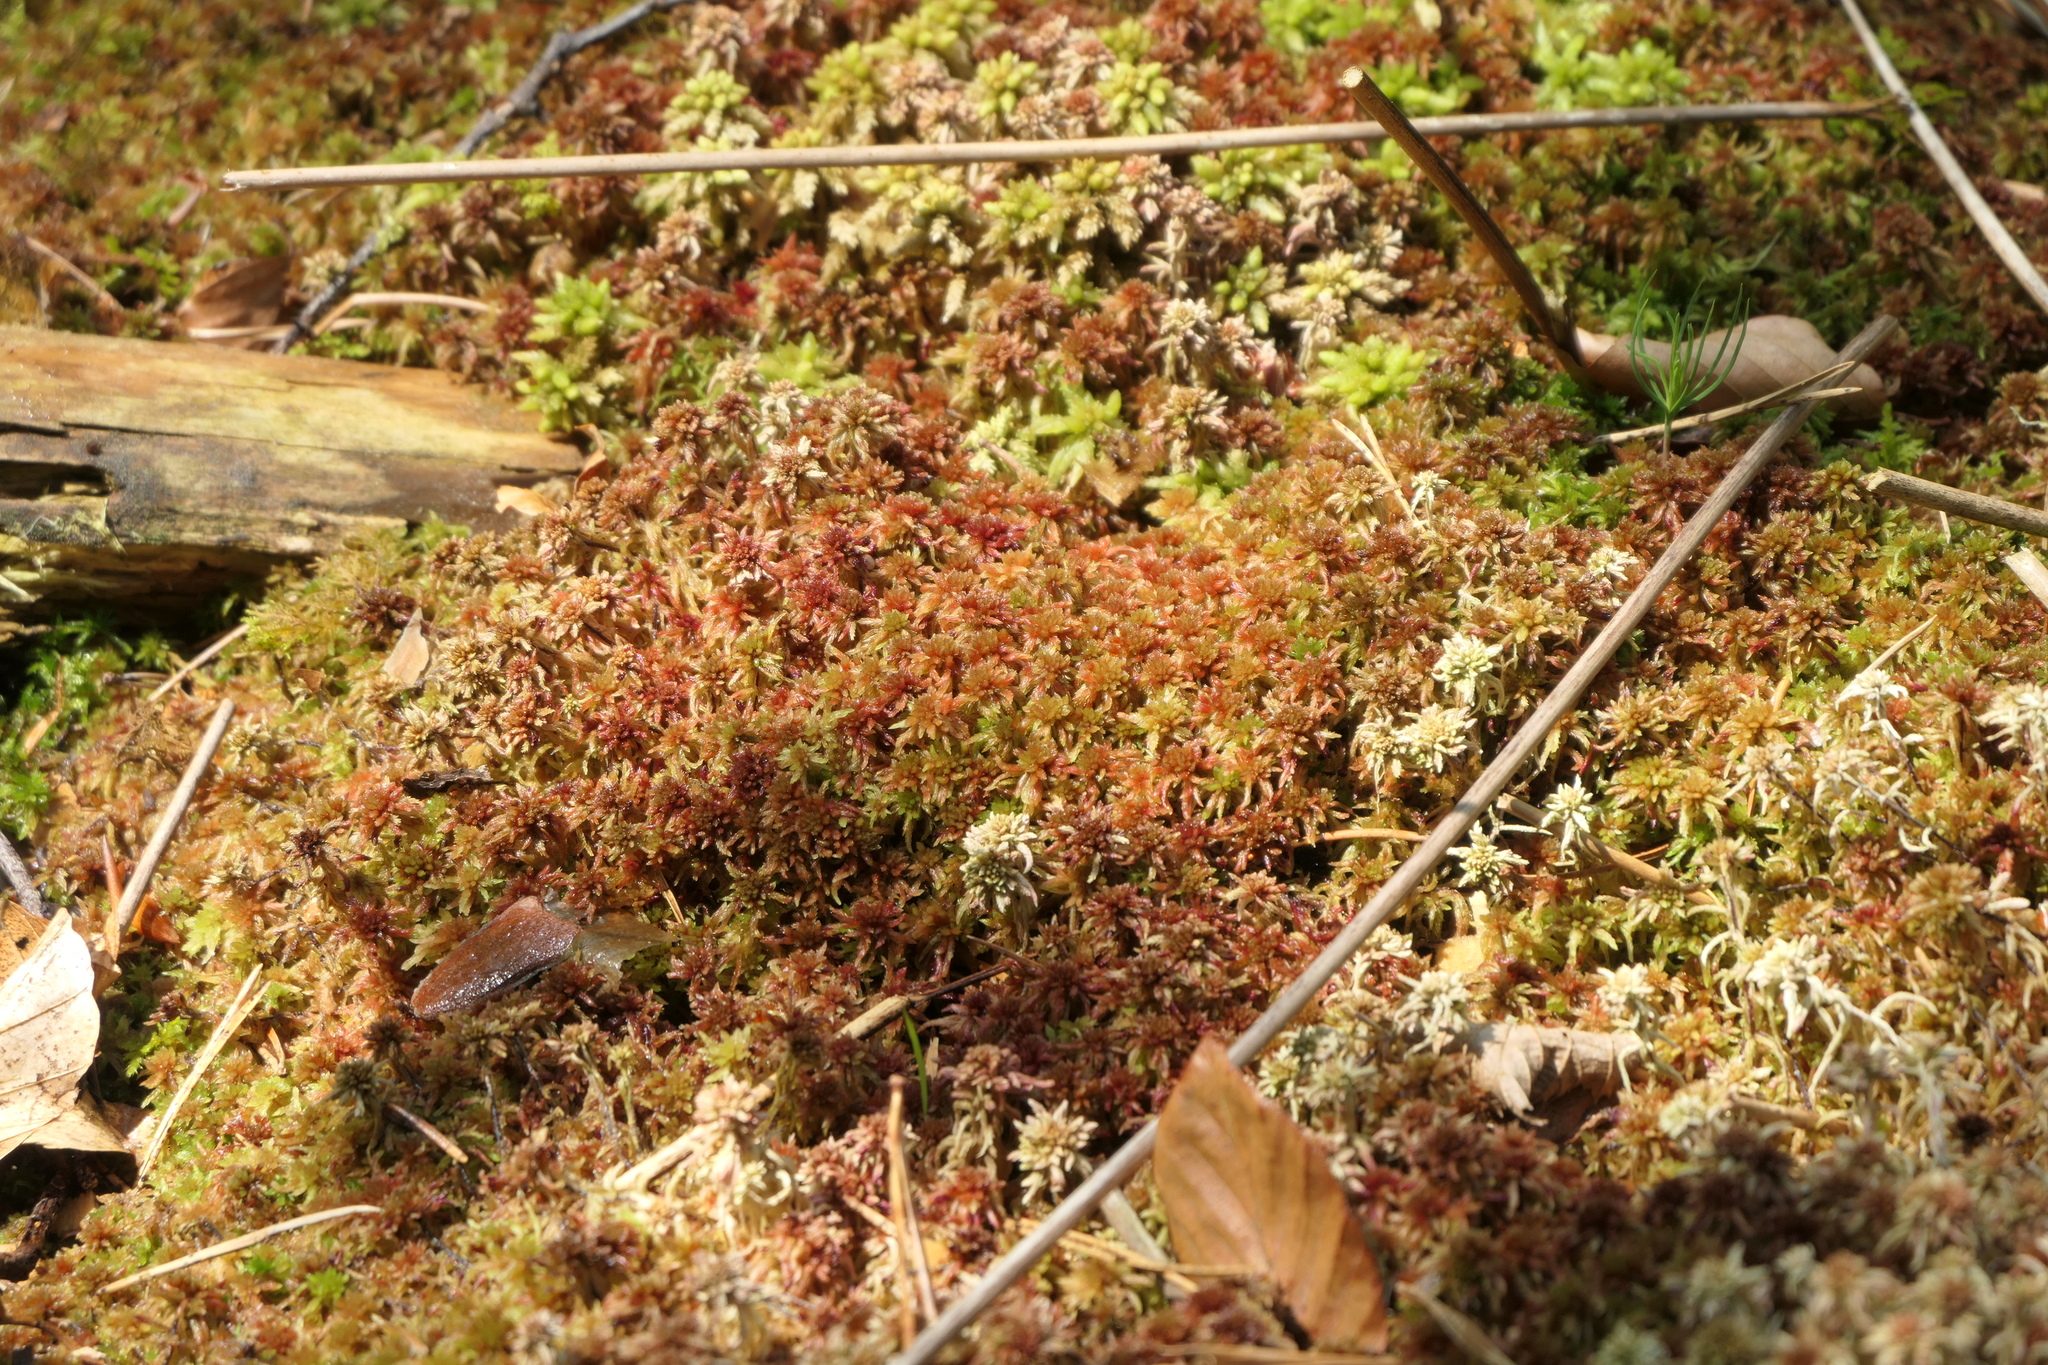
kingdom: Plantae
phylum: Bryophyta
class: Sphagnopsida
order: Sphagnales
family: Sphagnaceae
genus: Sphagnum
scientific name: Sphagnum rubellum
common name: Red peat moss
